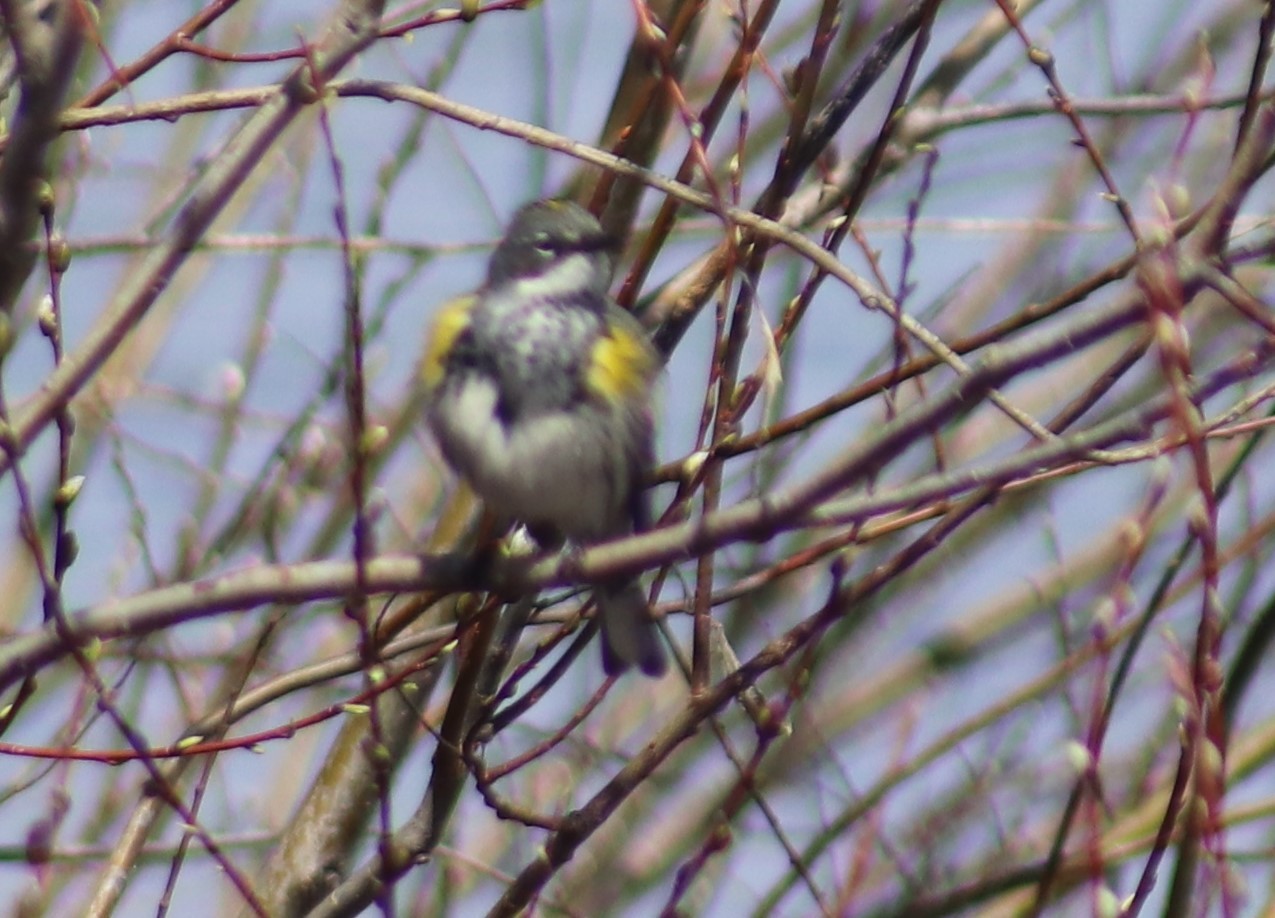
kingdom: Animalia
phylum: Chordata
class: Aves
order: Passeriformes
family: Parulidae
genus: Setophaga
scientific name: Setophaga coronata
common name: Myrtle warbler
